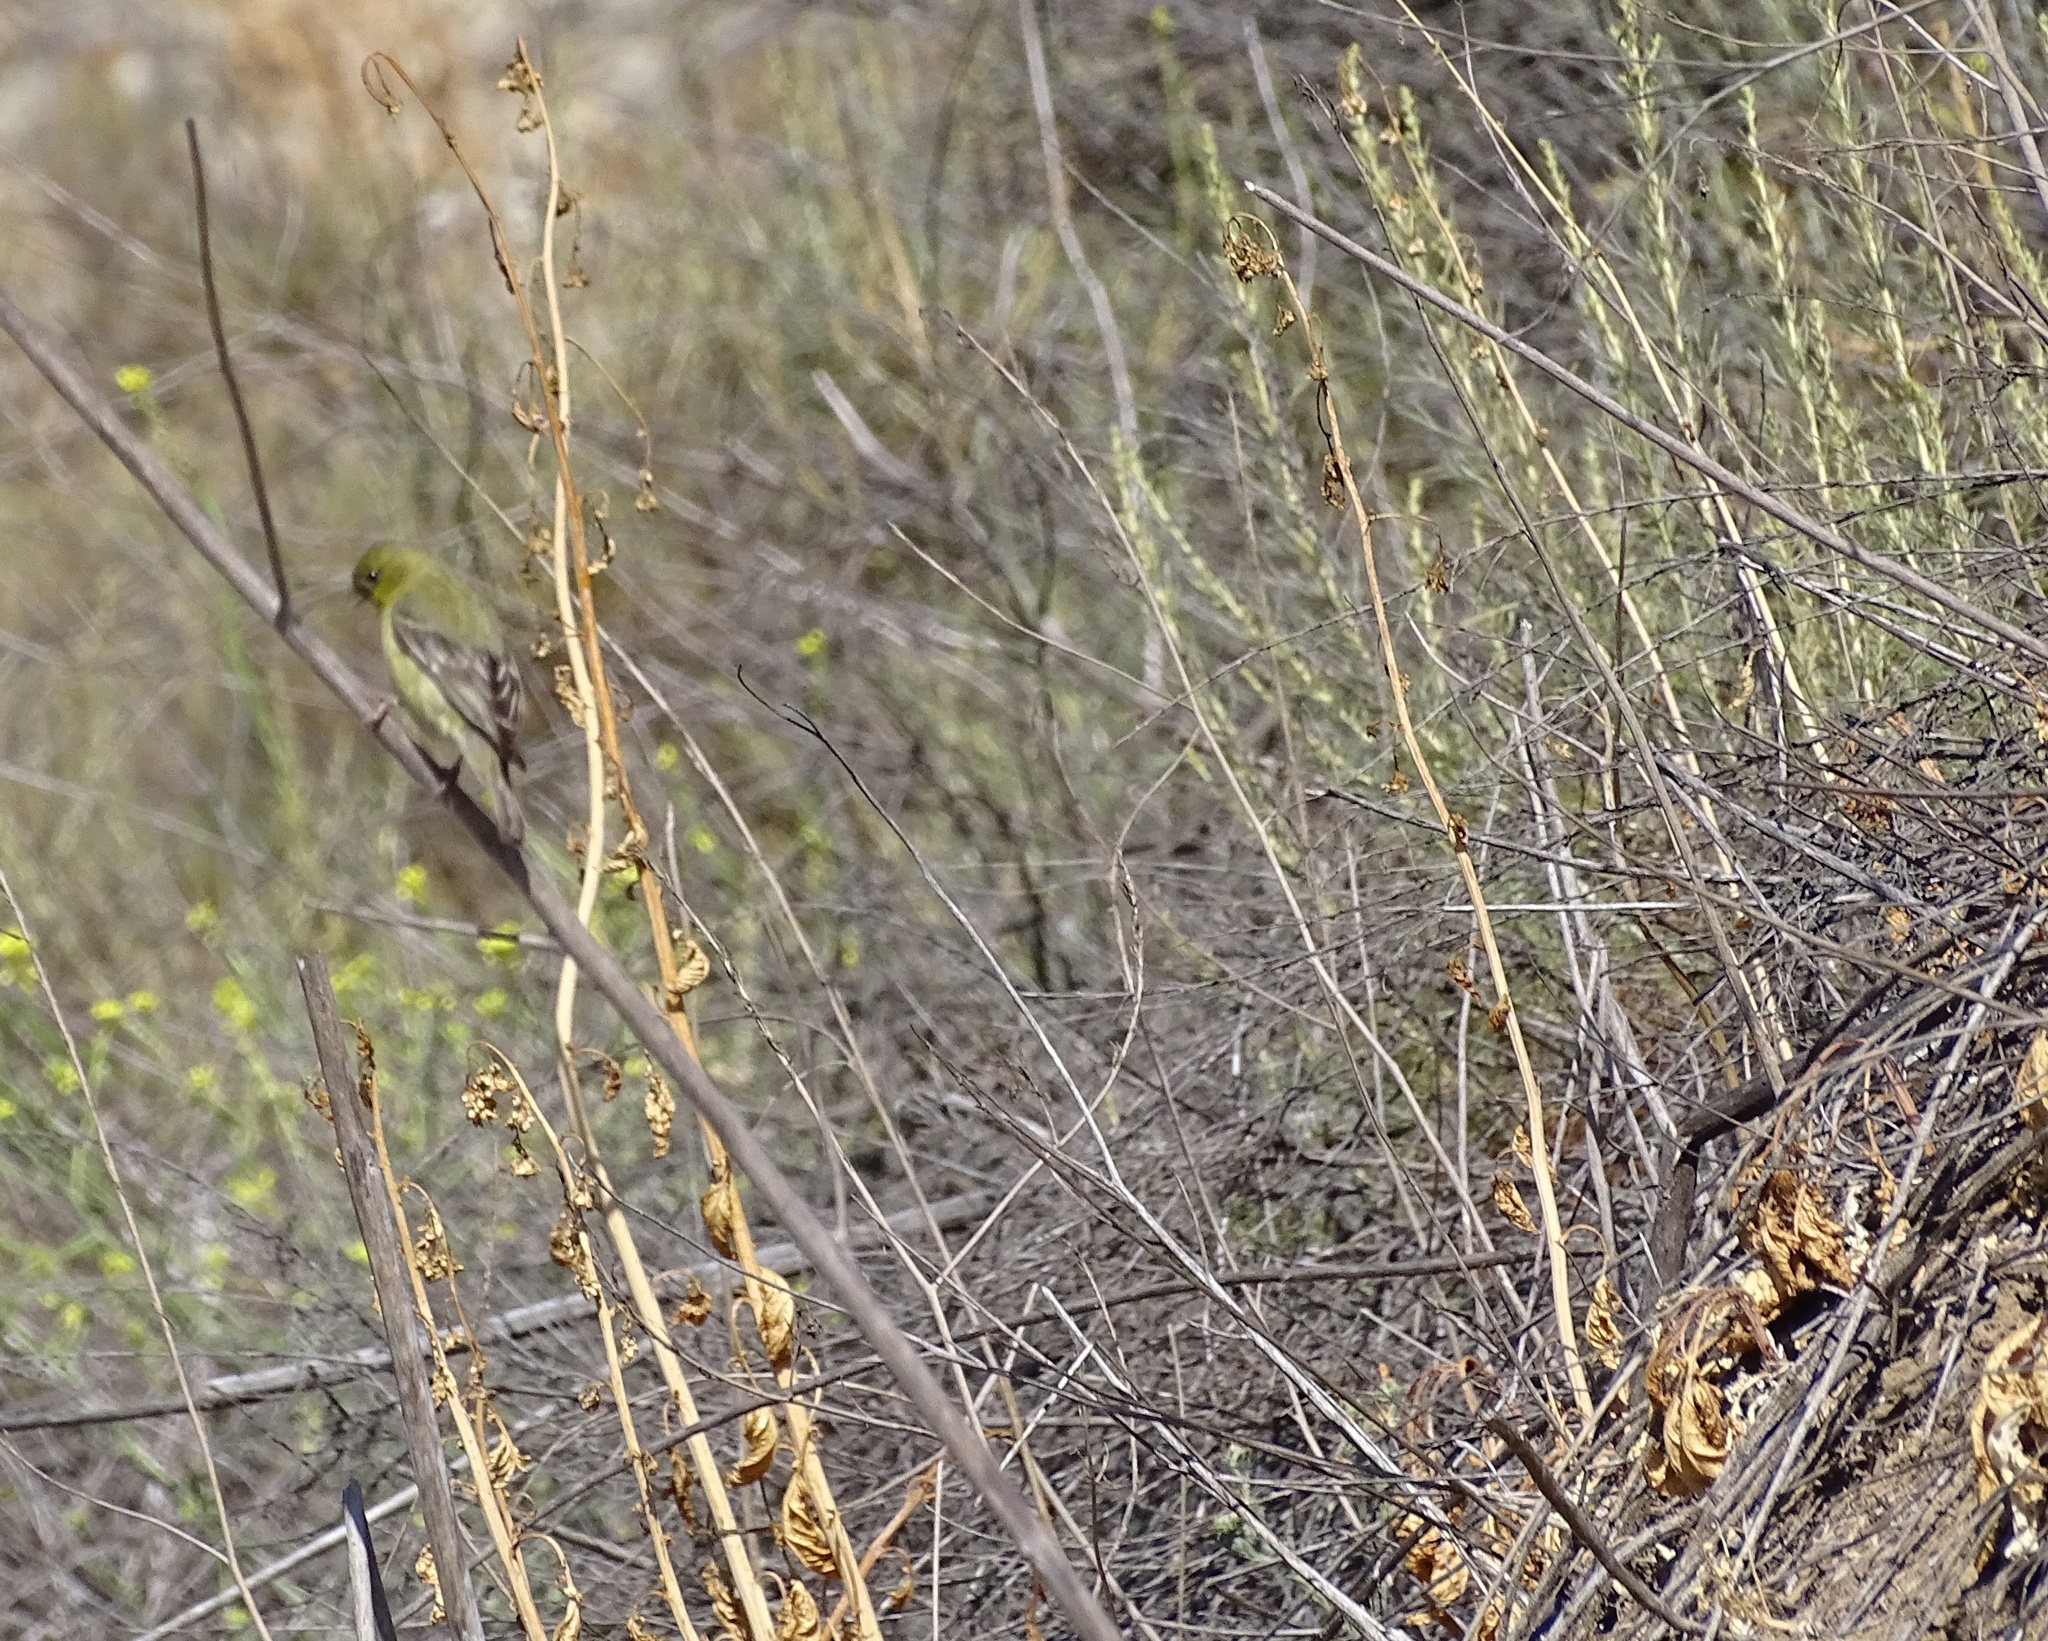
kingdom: Animalia
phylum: Chordata
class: Aves
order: Passeriformes
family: Fringillidae
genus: Spinus
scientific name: Spinus psaltria
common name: Lesser goldfinch
